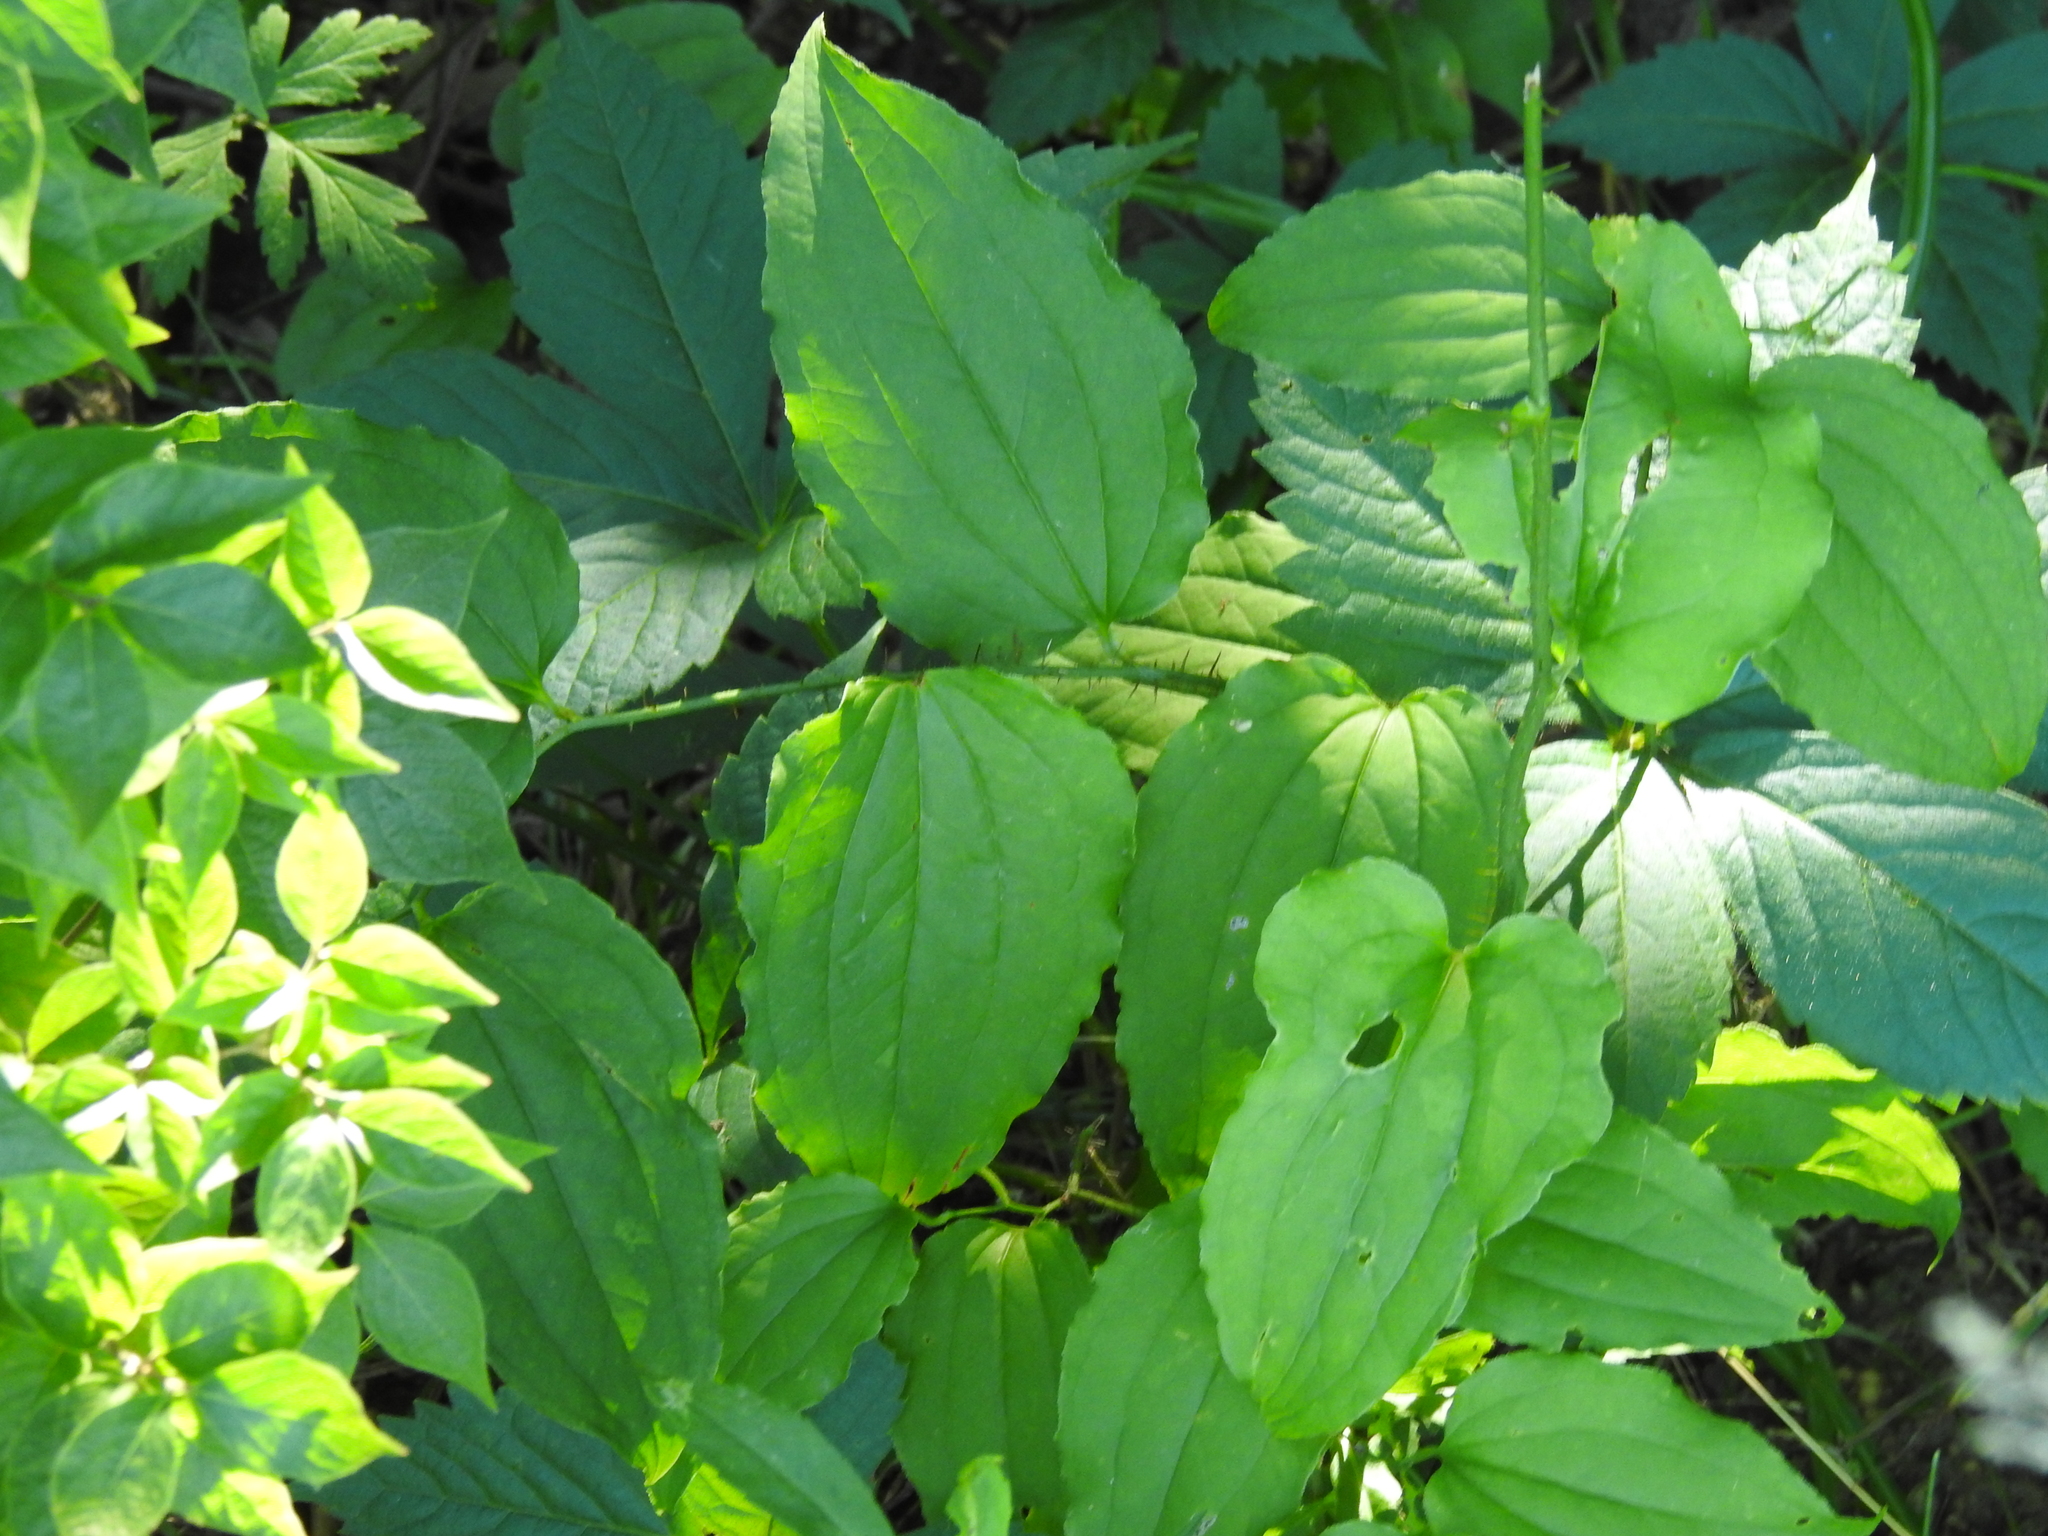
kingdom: Plantae
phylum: Tracheophyta
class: Liliopsida
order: Liliales
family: Smilacaceae
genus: Smilax
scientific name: Smilax tamnoides
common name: Hellfetter
